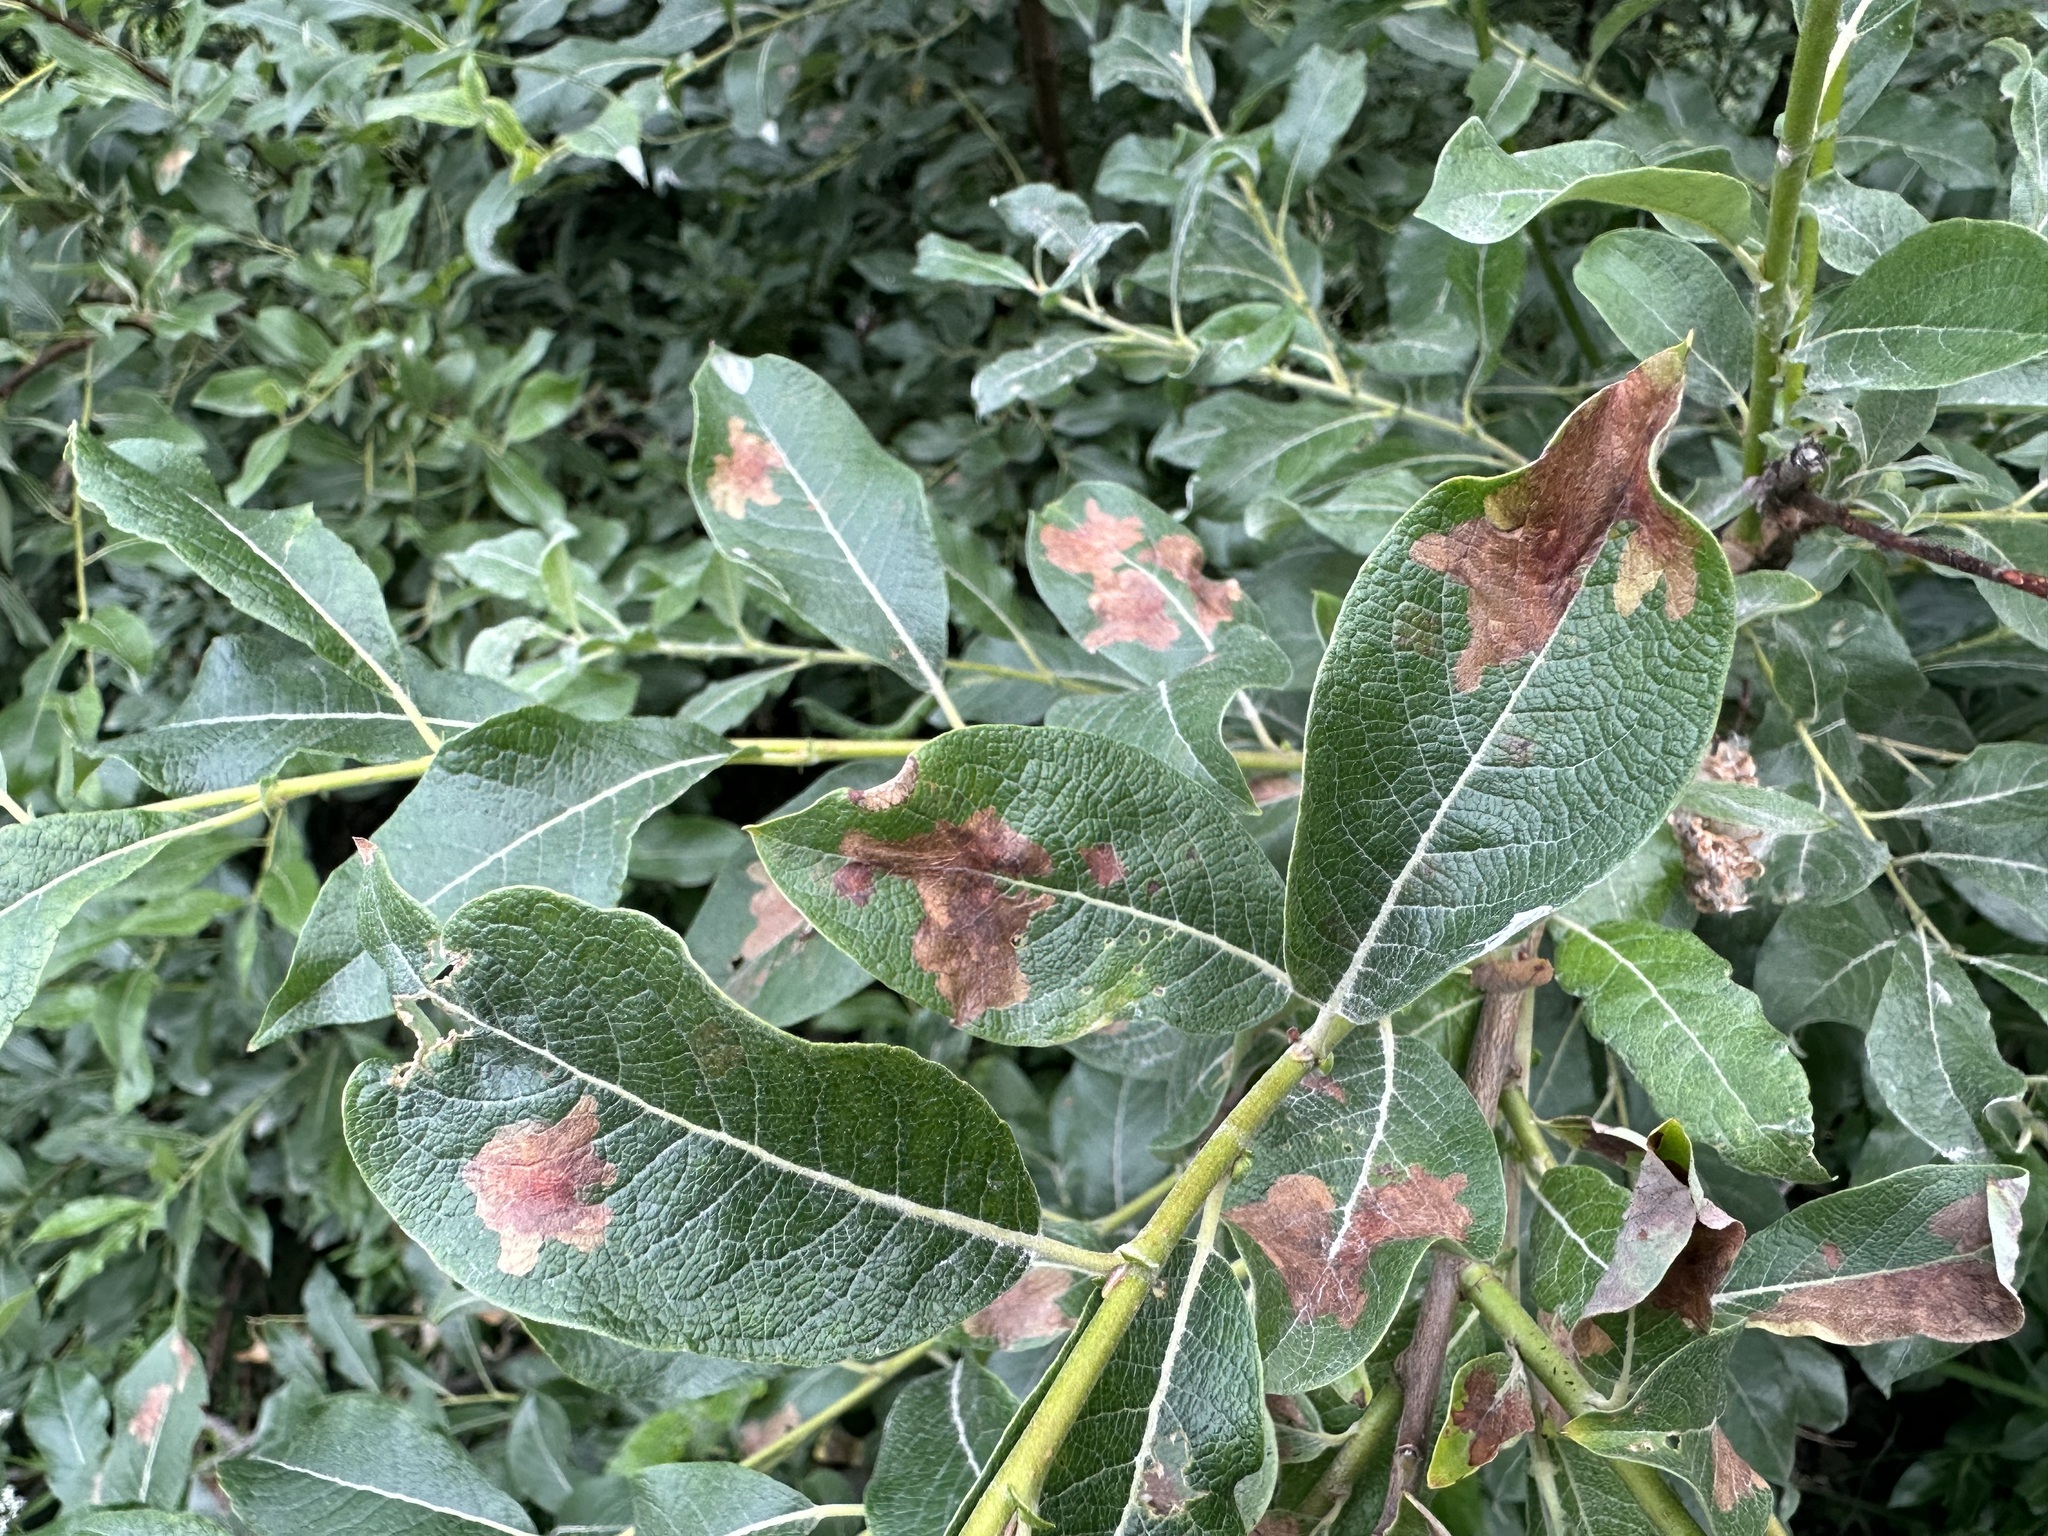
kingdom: Animalia
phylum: Arthropoda
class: Insecta
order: Lepidoptera
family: Gracillariidae
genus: Micrurapteryx
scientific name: Micrurapteryx salicifoliella
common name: Willow leaf blotch miner moth
